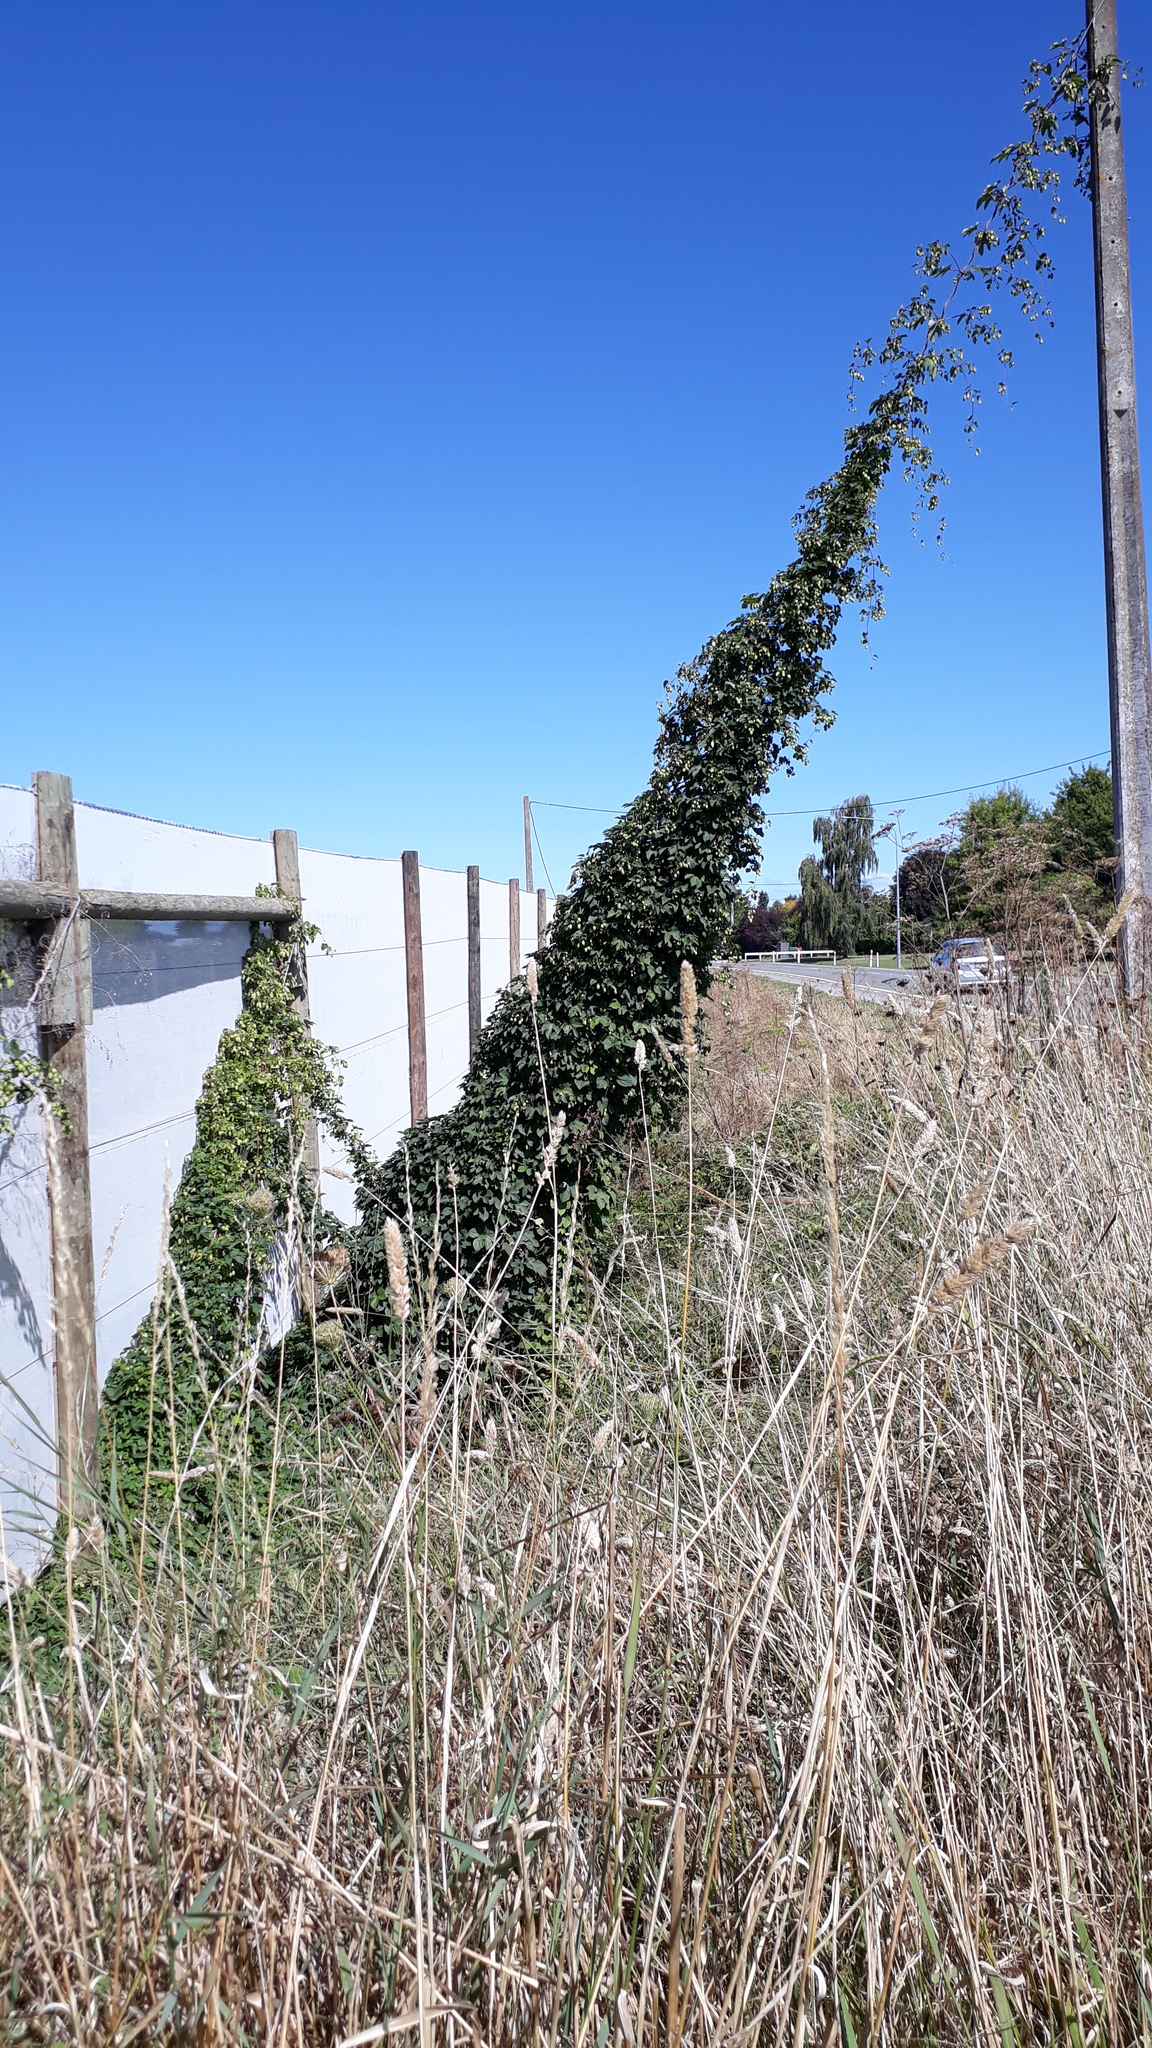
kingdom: Plantae
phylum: Tracheophyta
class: Magnoliopsida
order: Rosales
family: Cannabaceae
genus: Humulus
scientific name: Humulus lupulus
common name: Hop
